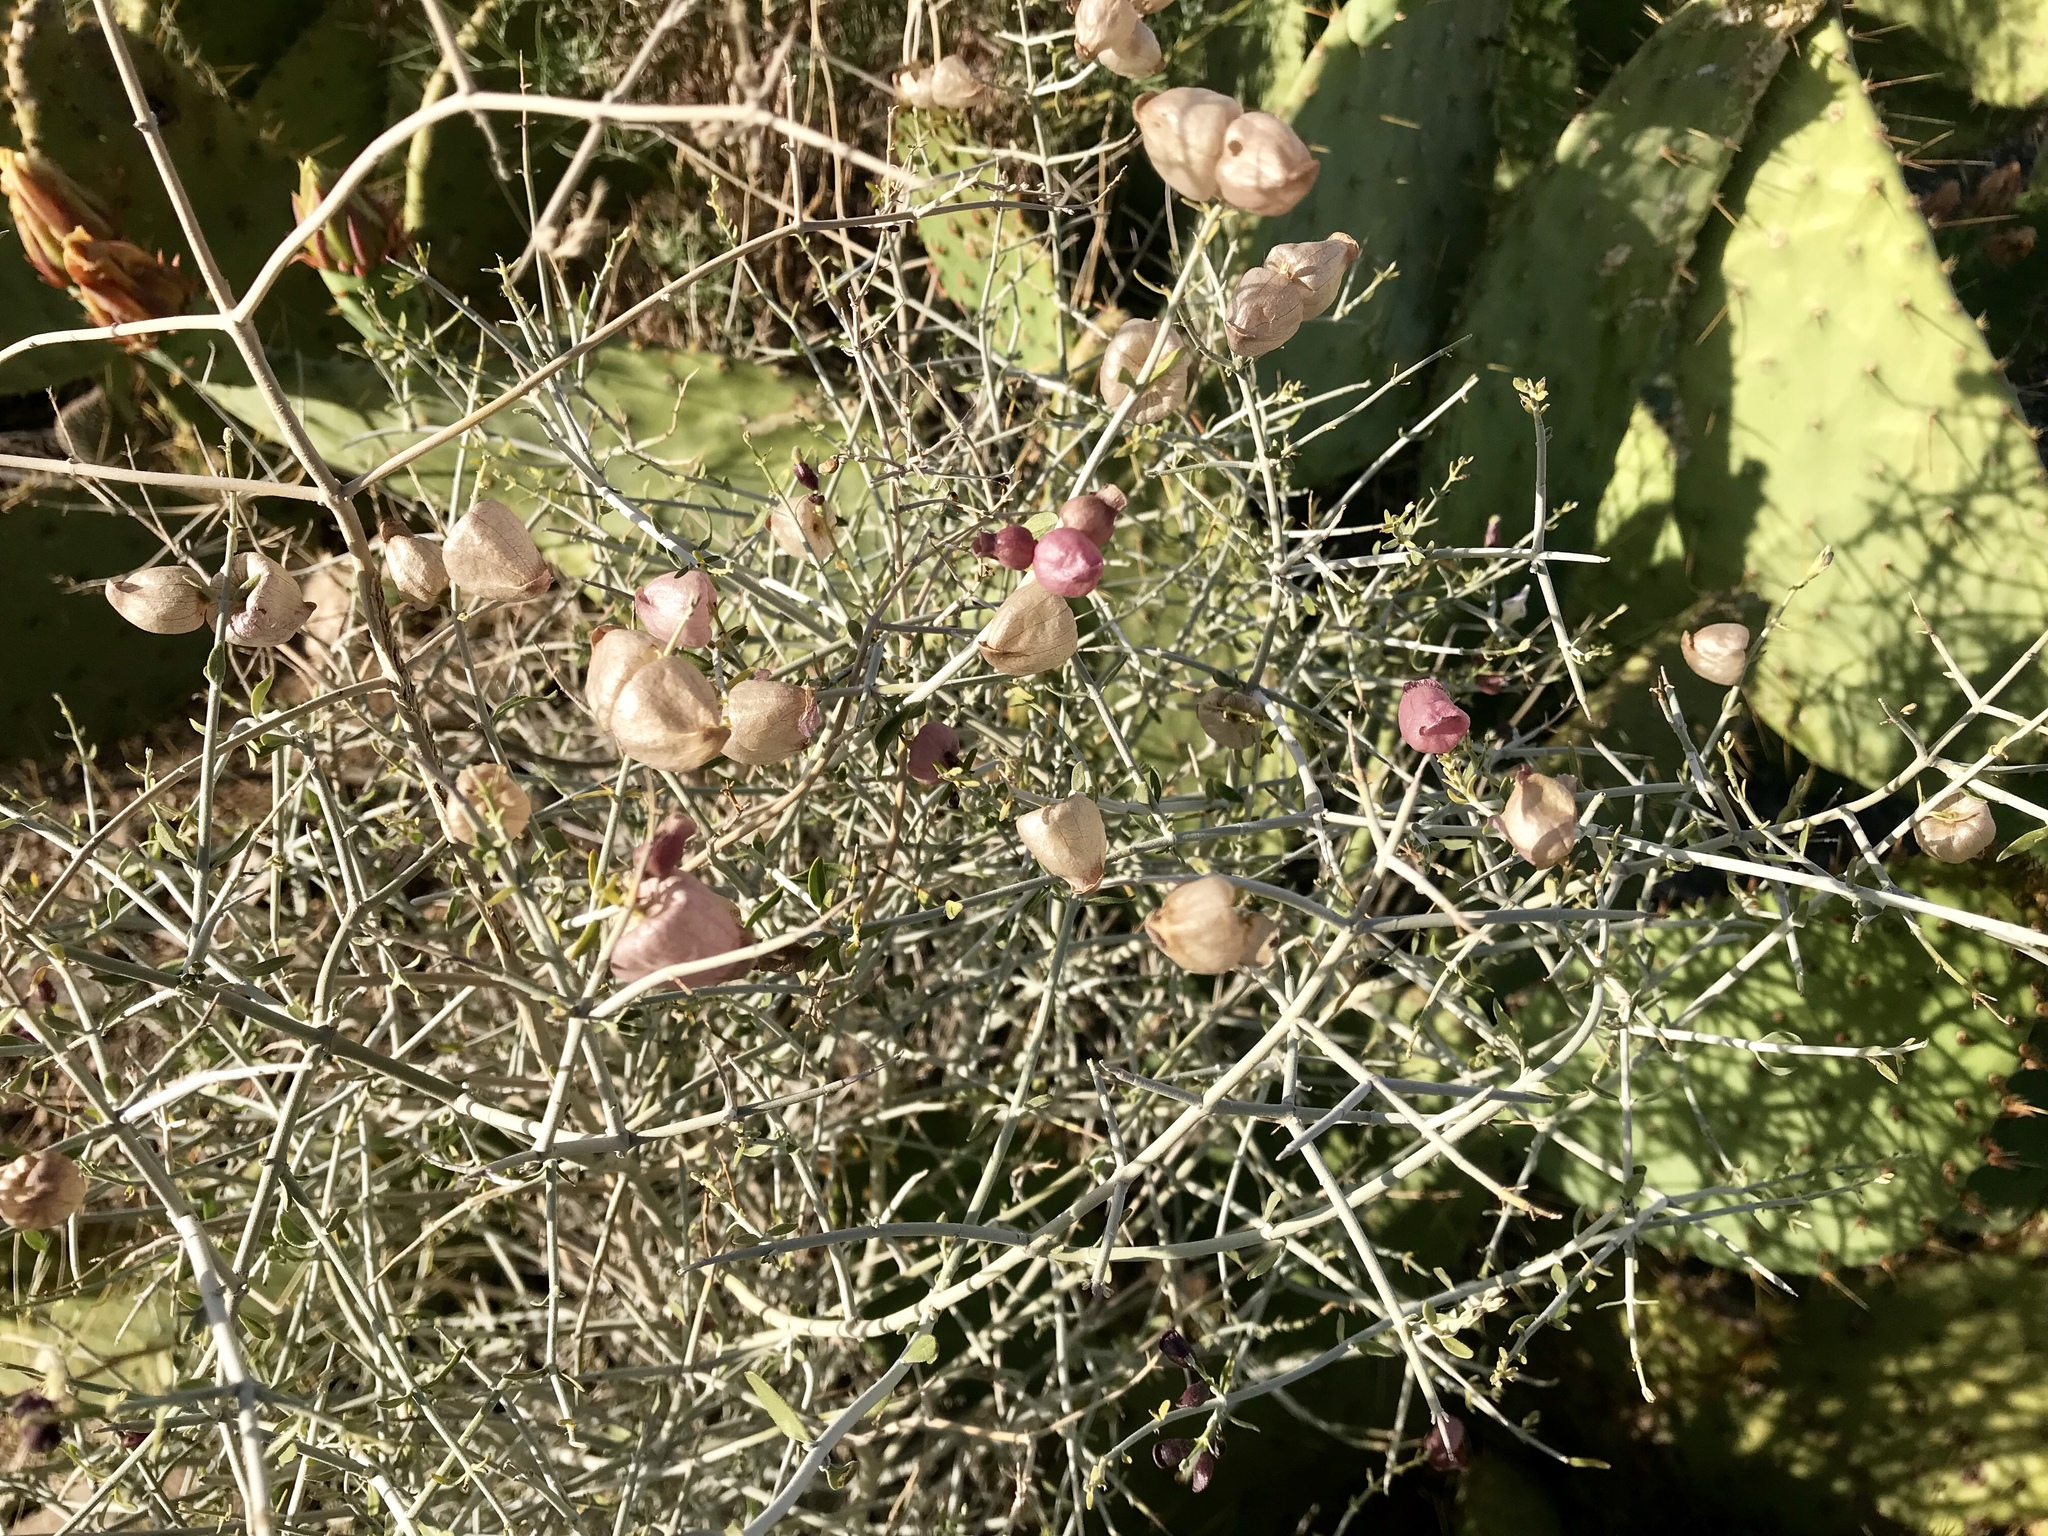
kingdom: Plantae
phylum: Tracheophyta
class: Magnoliopsida
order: Lamiales
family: Lamiaceae
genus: Scutellaria
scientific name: Scutellaria mexicana
